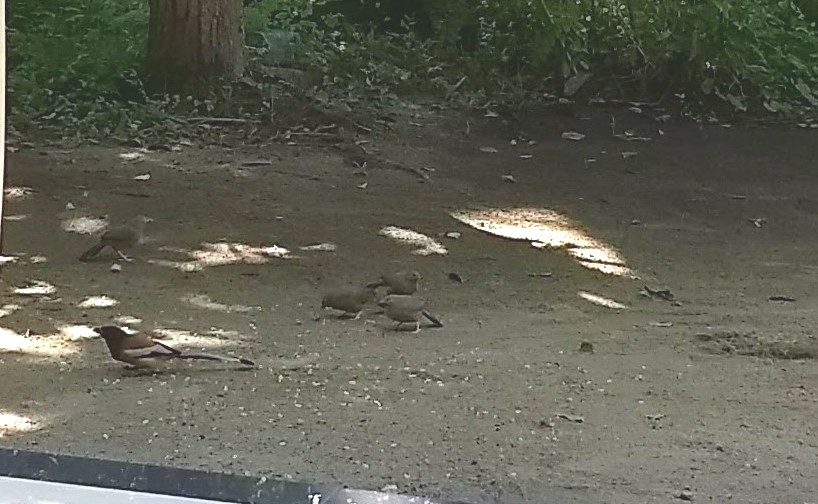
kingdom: Animalia
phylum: Chordata
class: Aves
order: Passeriformes
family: Leiothrichidae
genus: Turdoides
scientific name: Turdoides striata
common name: Jungle babbler
